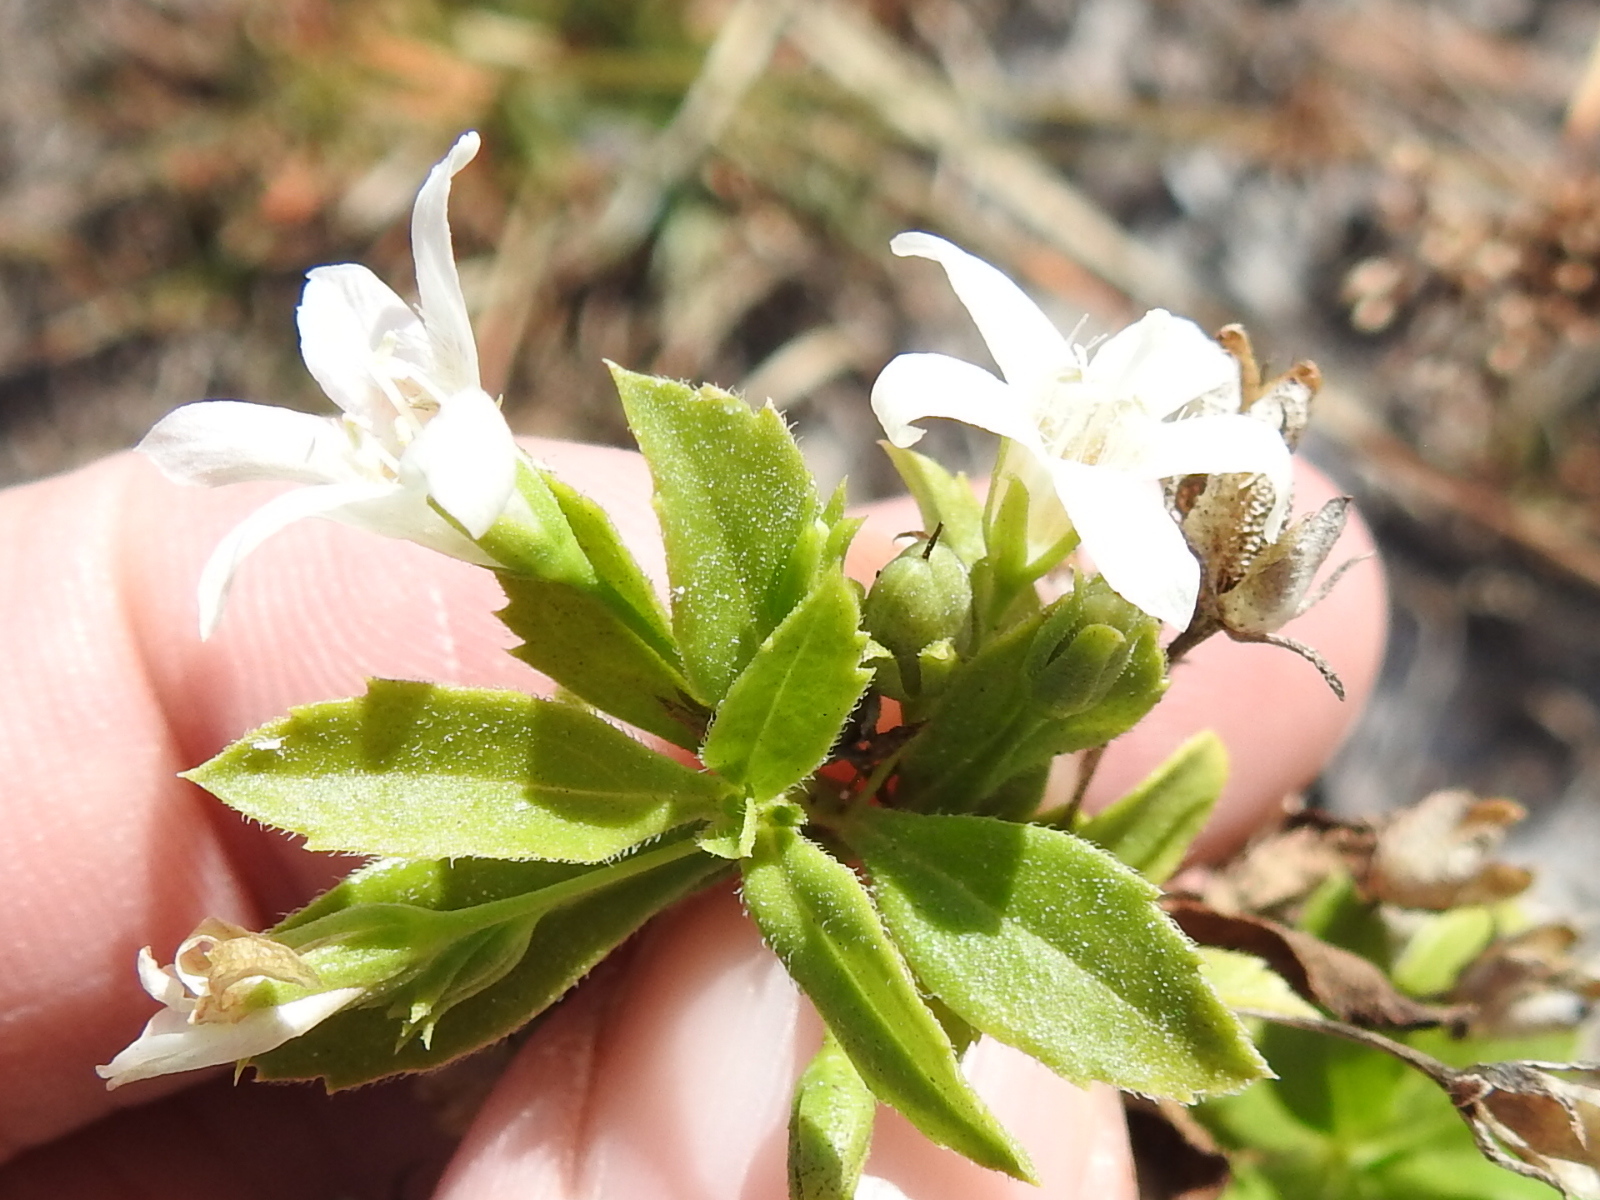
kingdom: Plantae
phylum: Tracheophyta
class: Magnoliopsida
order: Lamiales
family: Scrophulariaceae
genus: Capraria
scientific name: Capraria biflora
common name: Goatweed
